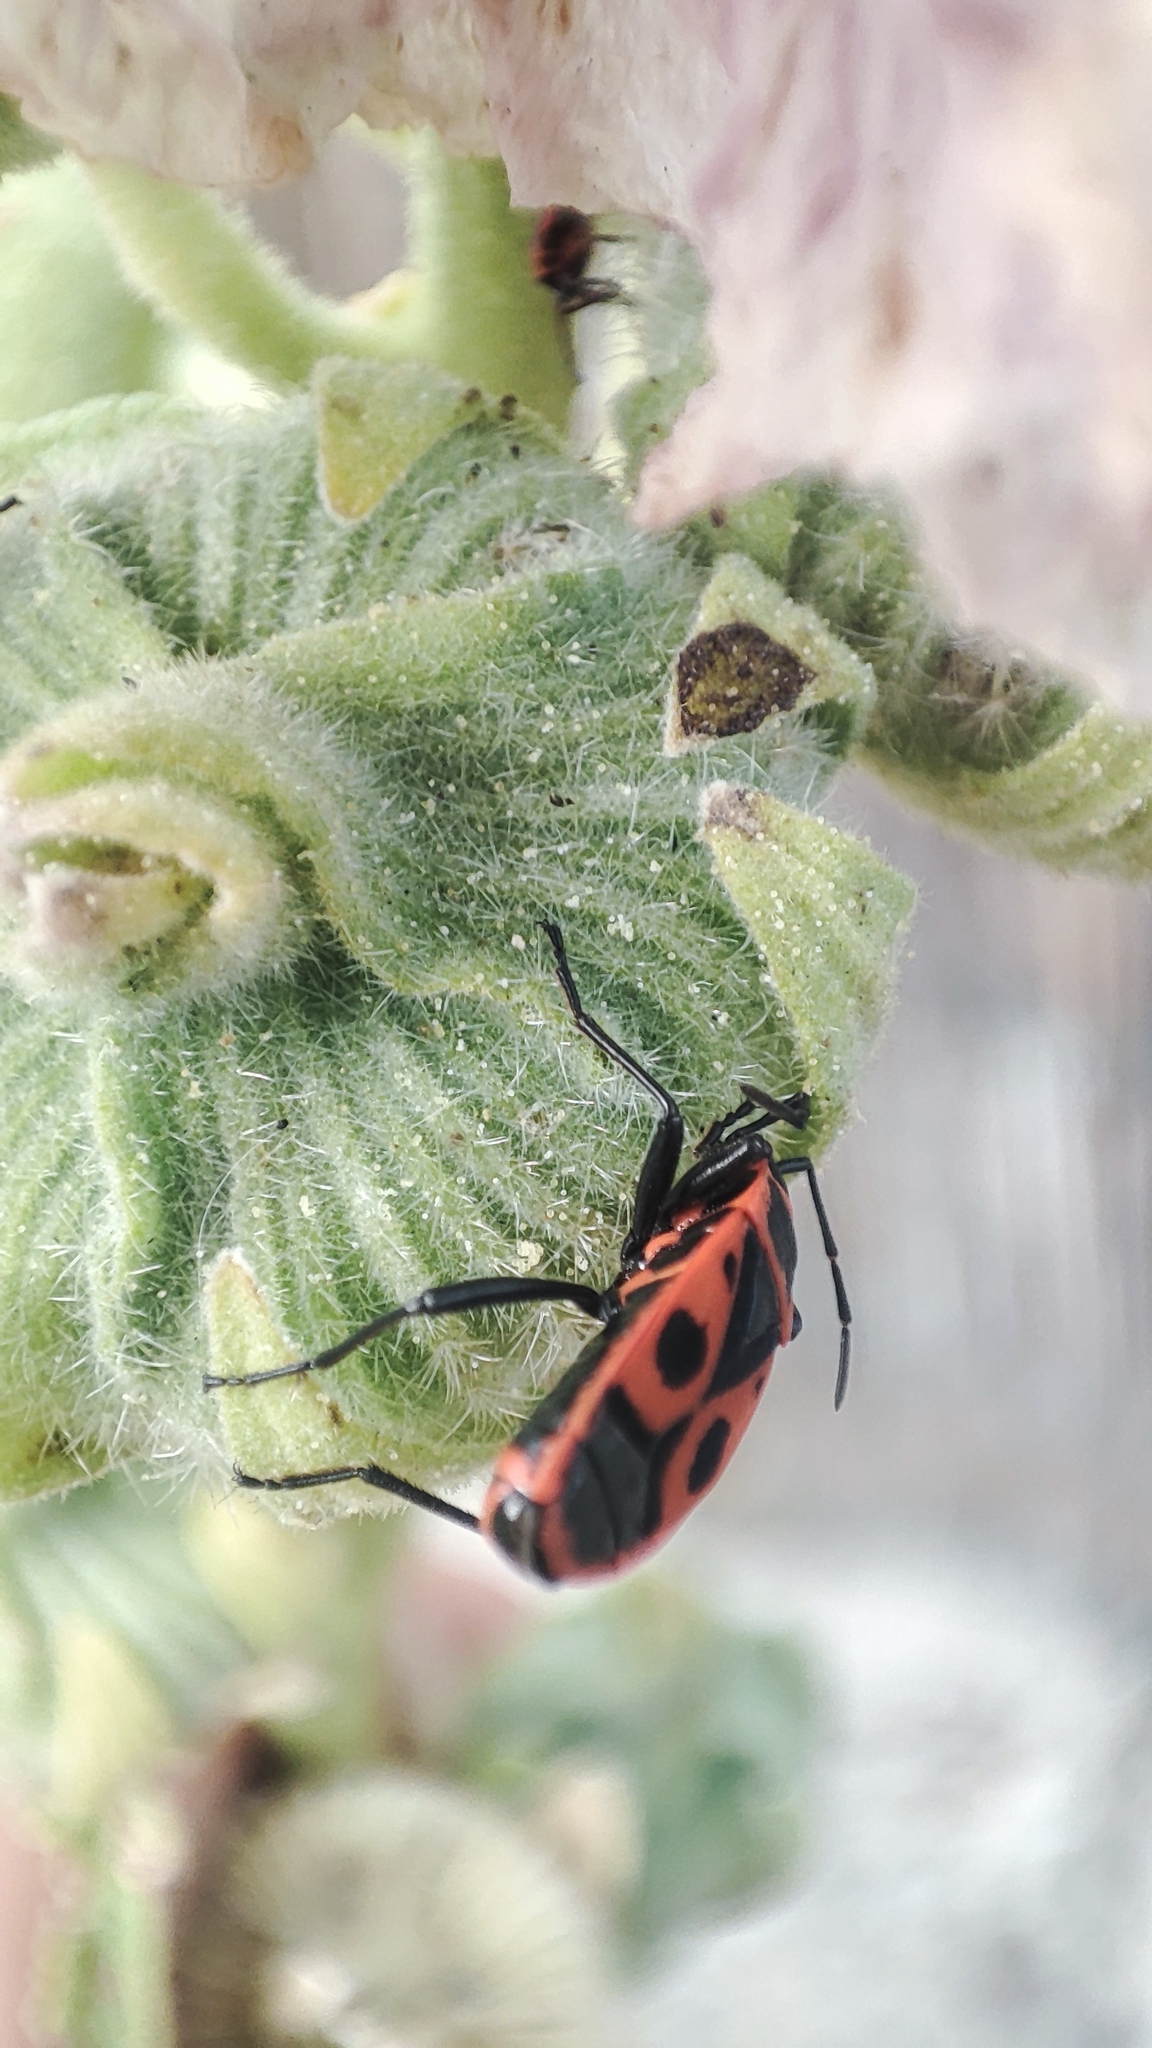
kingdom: Animalia
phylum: Arthropoda
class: Insecta
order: Hemiptera
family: Pyrrhocoridae
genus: Pyrrhocoris
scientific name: Pyrrhocoris apterus
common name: Firebug
